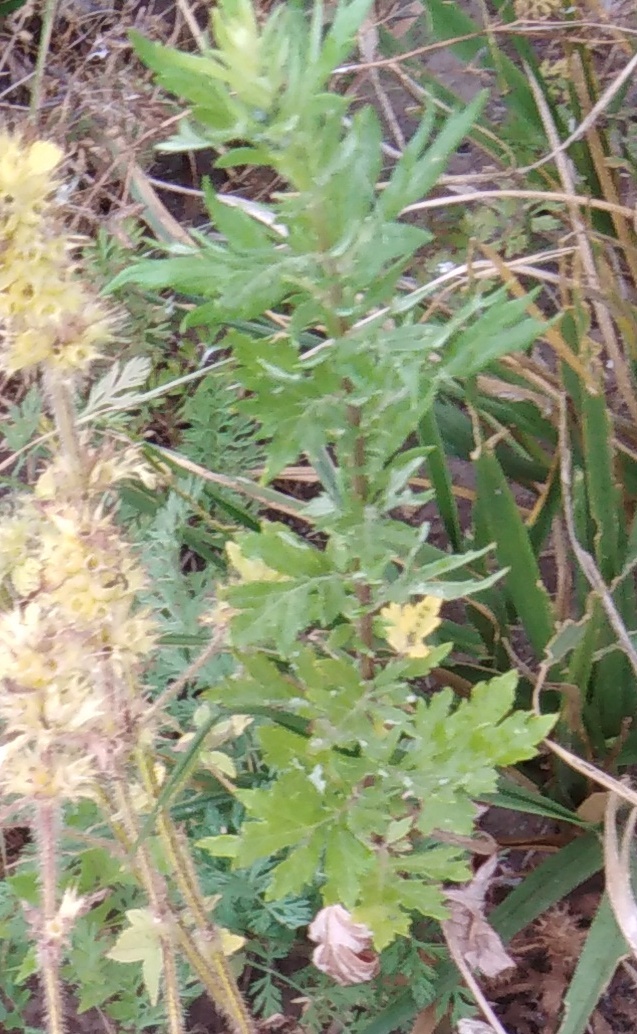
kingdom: Plantae
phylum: Tracheophyta
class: Magnoliopsida
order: Asterales
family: Asteraceae
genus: Artemisia
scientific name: Artemisia vulgaris
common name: Mugwort
